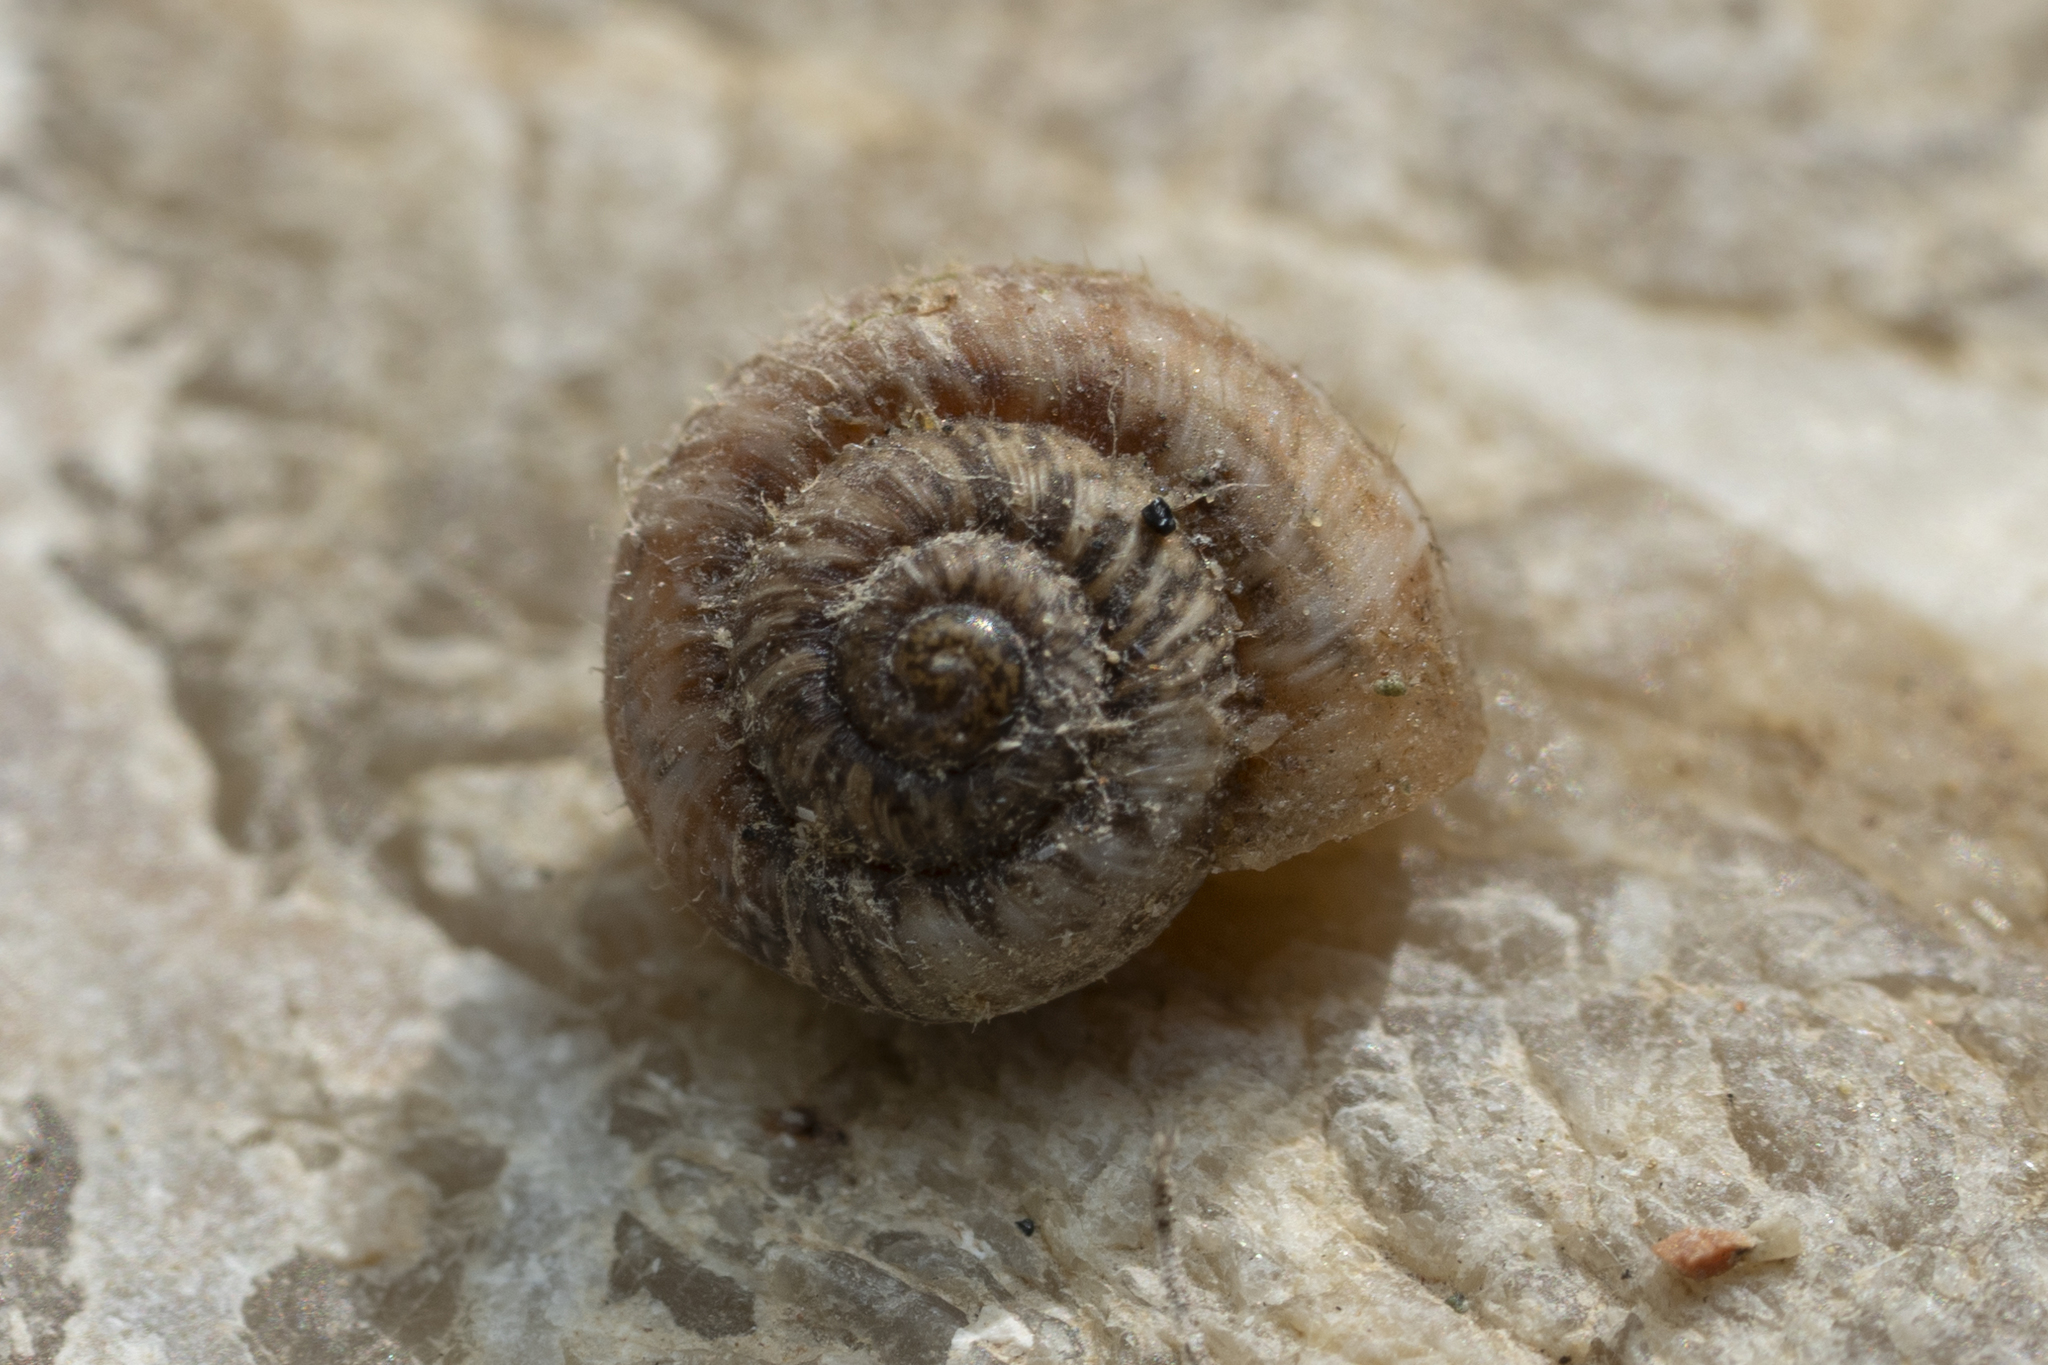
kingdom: Animalia
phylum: Mollusca
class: Gastropoda
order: Stylommatophora
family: Geomitridae
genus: Xerotricha
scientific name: Xerotricha apicina
